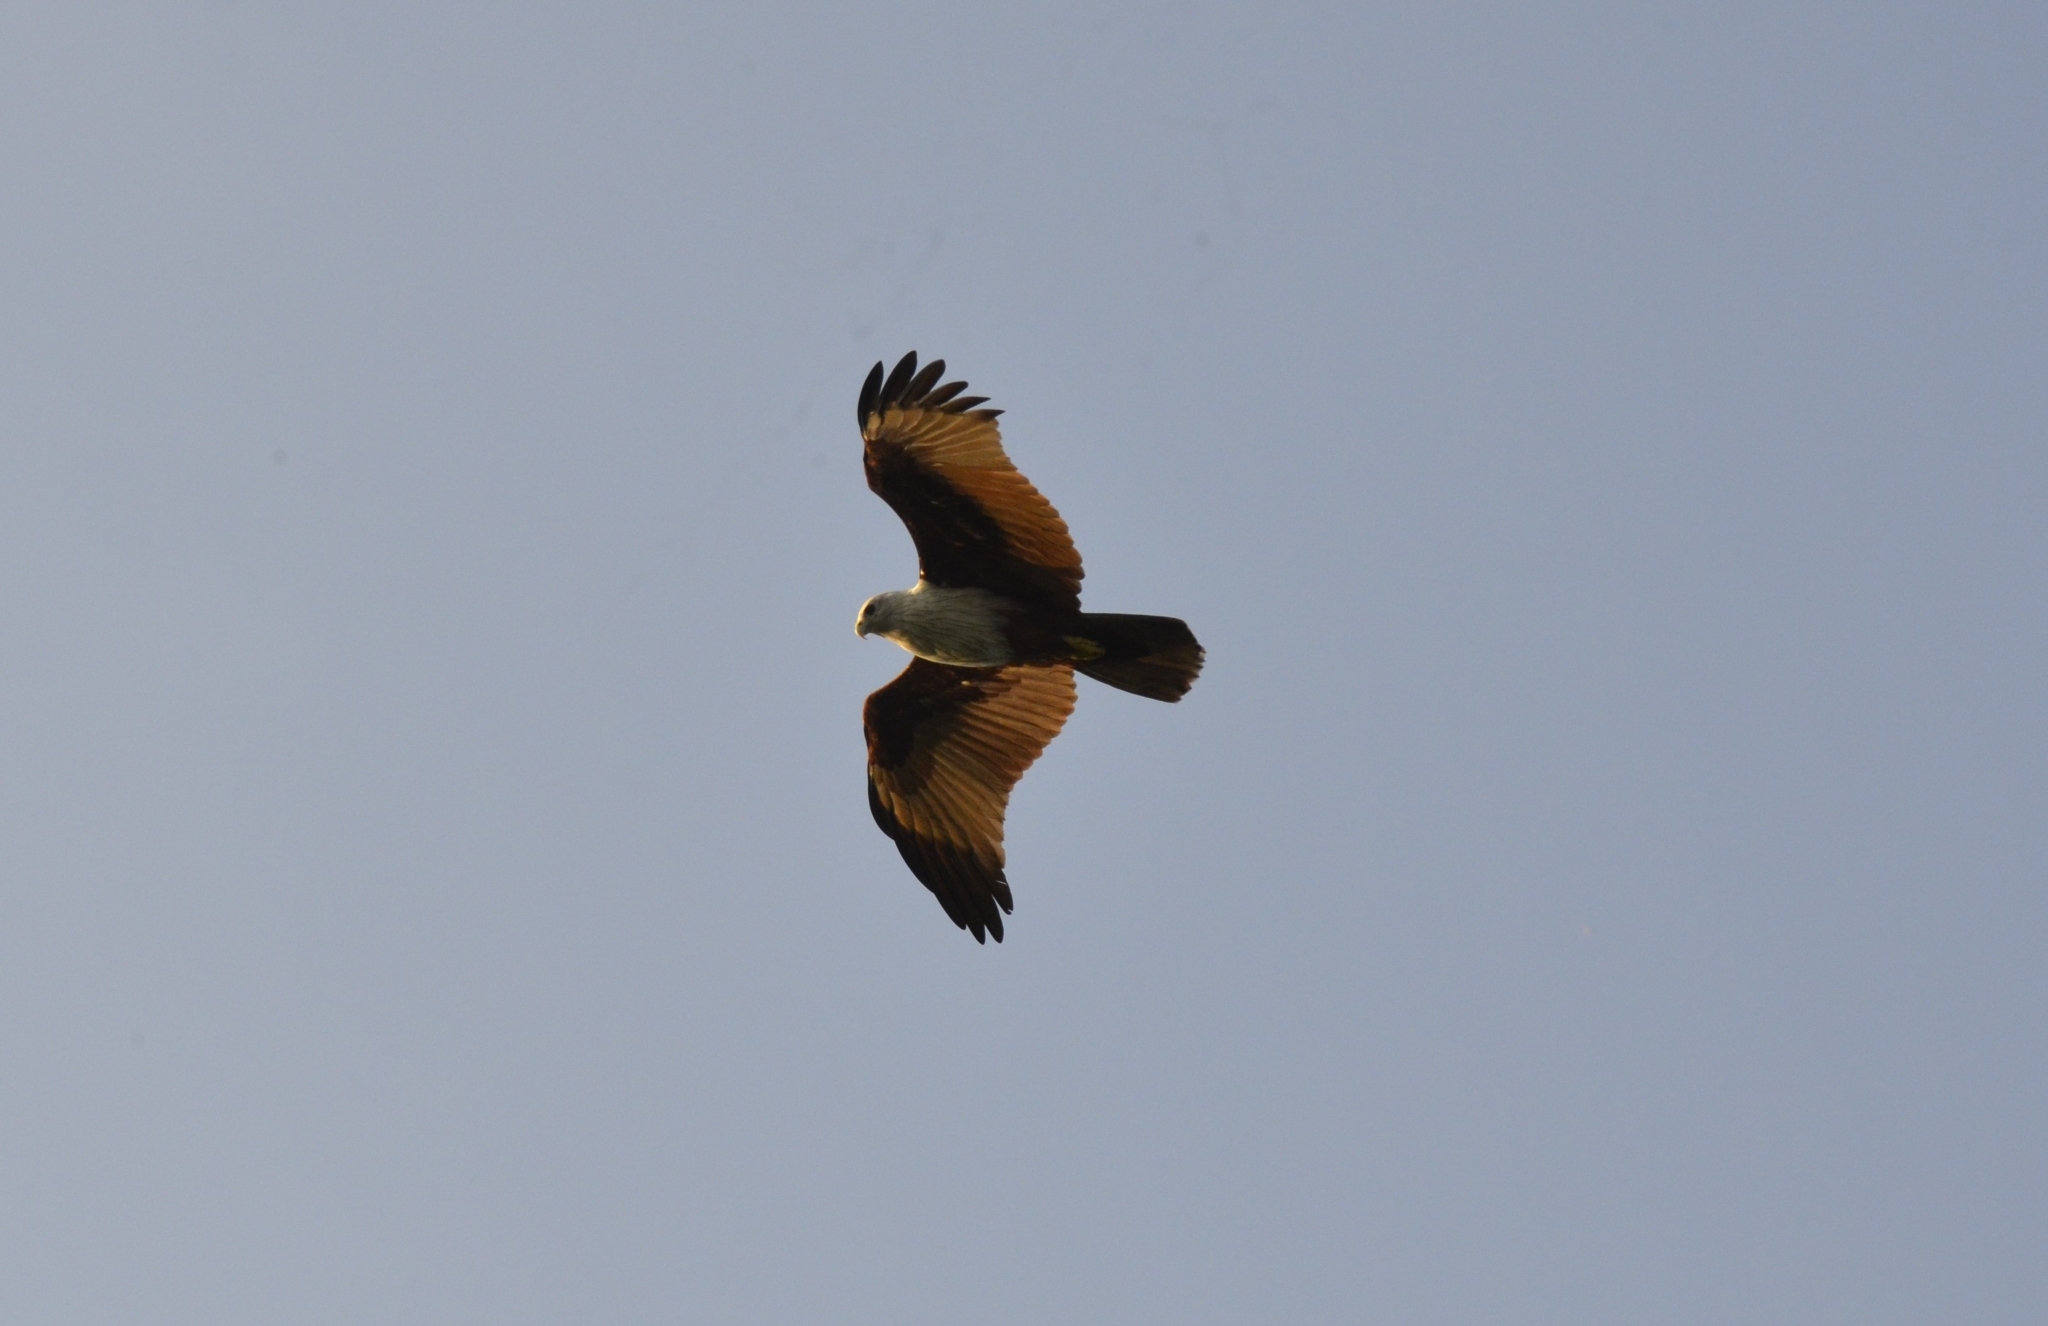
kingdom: Animalia
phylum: Chordata
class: Aves
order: Accipitriformes
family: Accipitridae
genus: Haliastur
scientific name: Haliastur indus
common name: Brahminy kite
